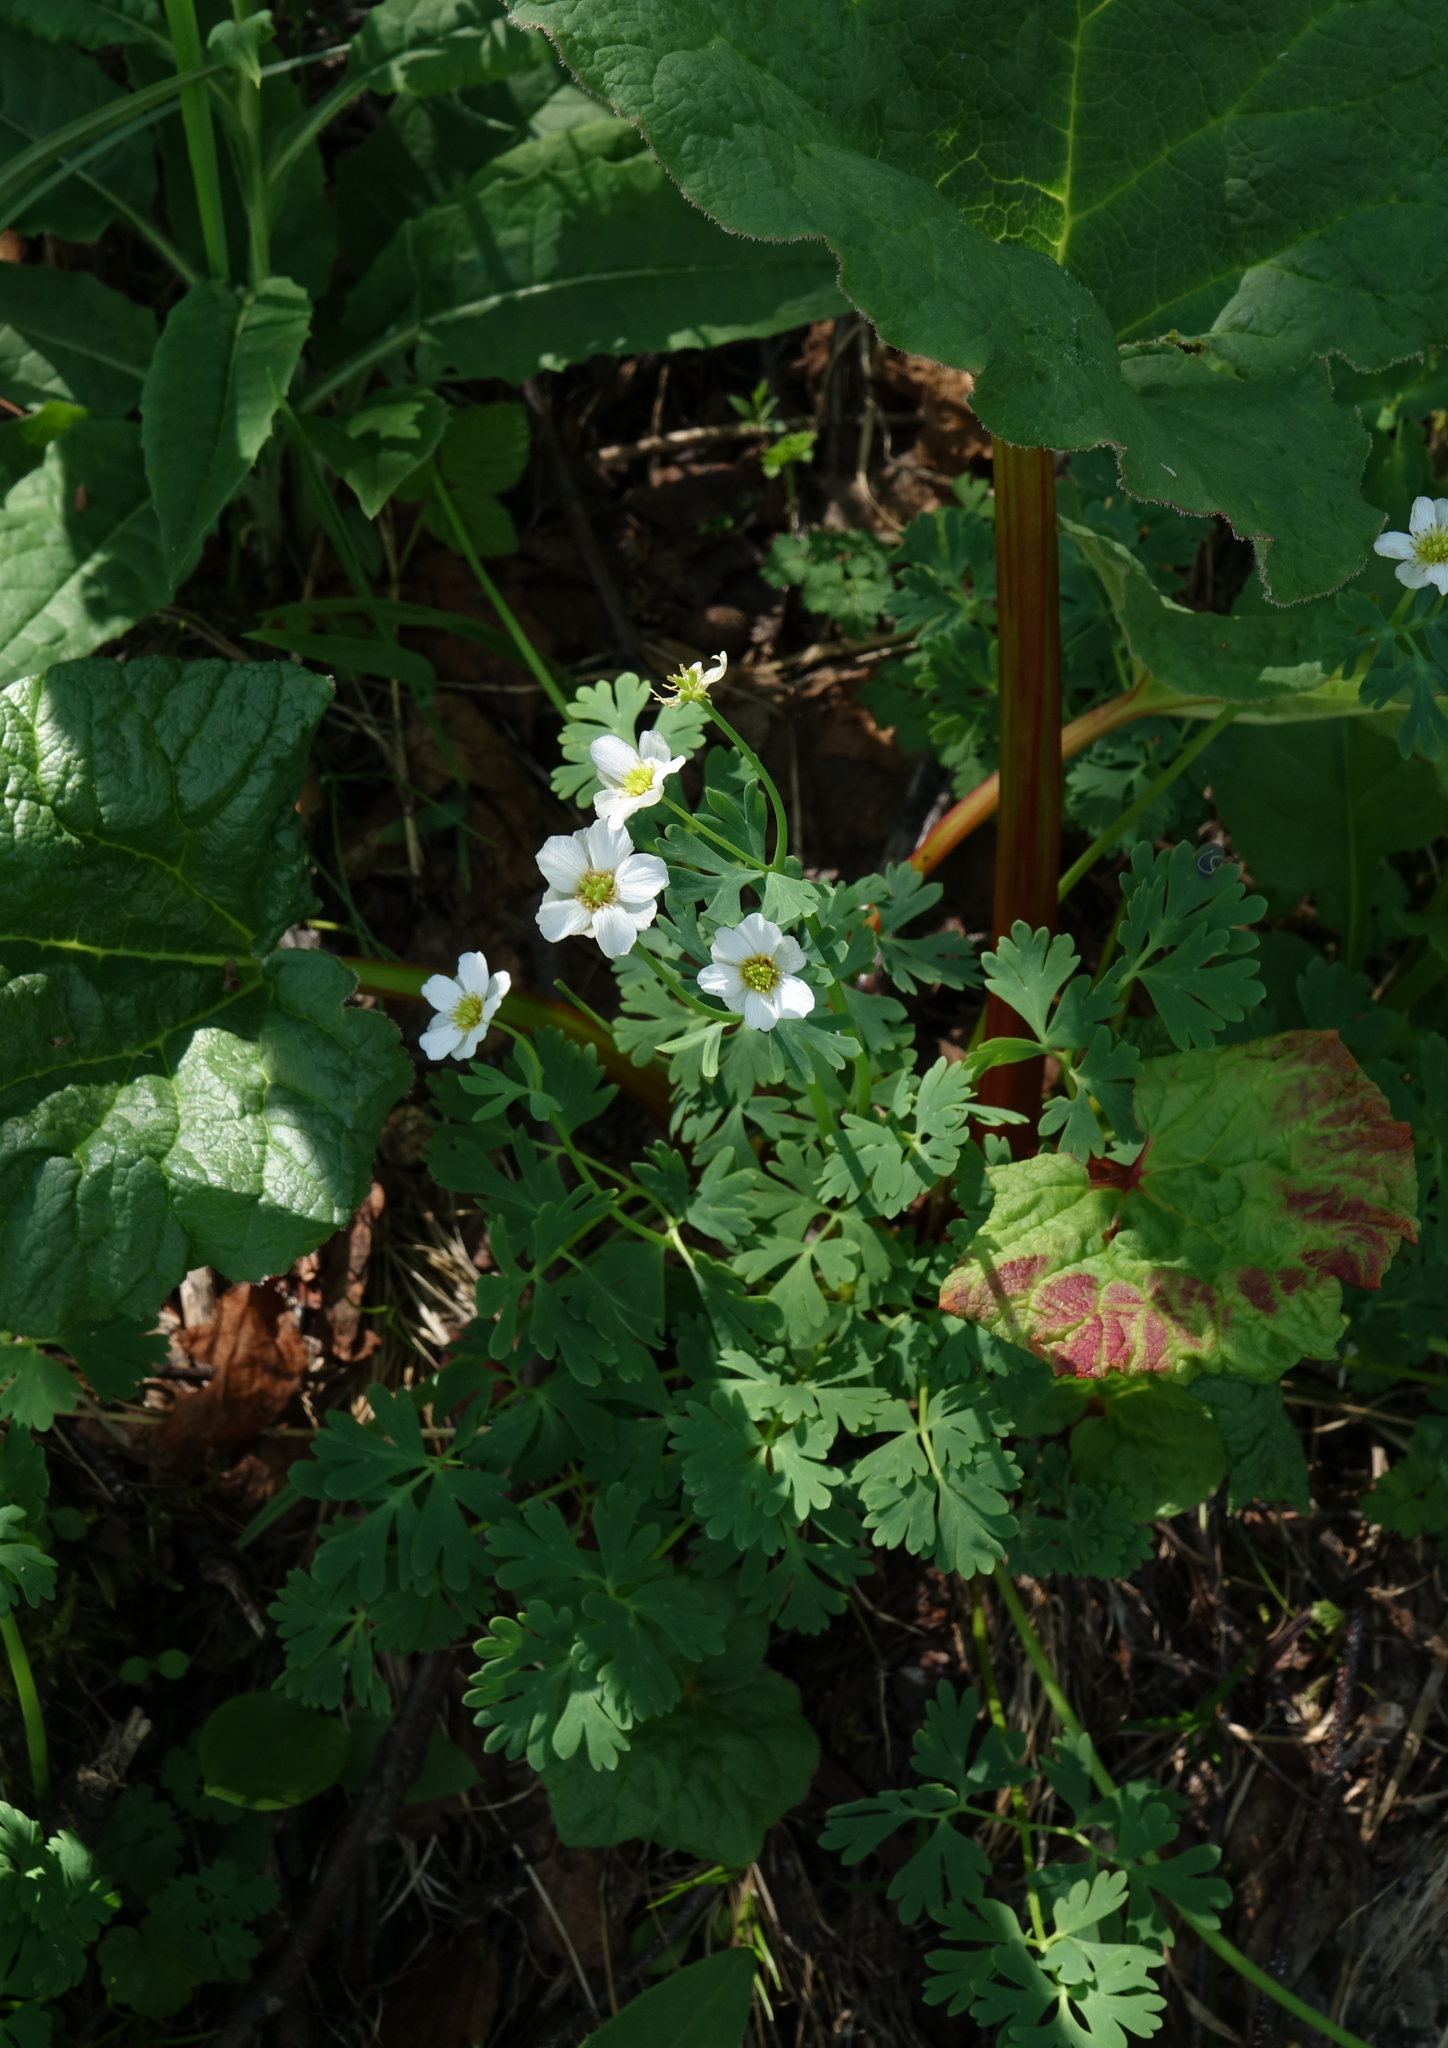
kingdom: Plantae
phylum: Tracheophyta
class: Magnoliopsida
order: Ranunculales
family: Ranunculaceae
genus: Callianthemum
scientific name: Callianthemum isopyroides
